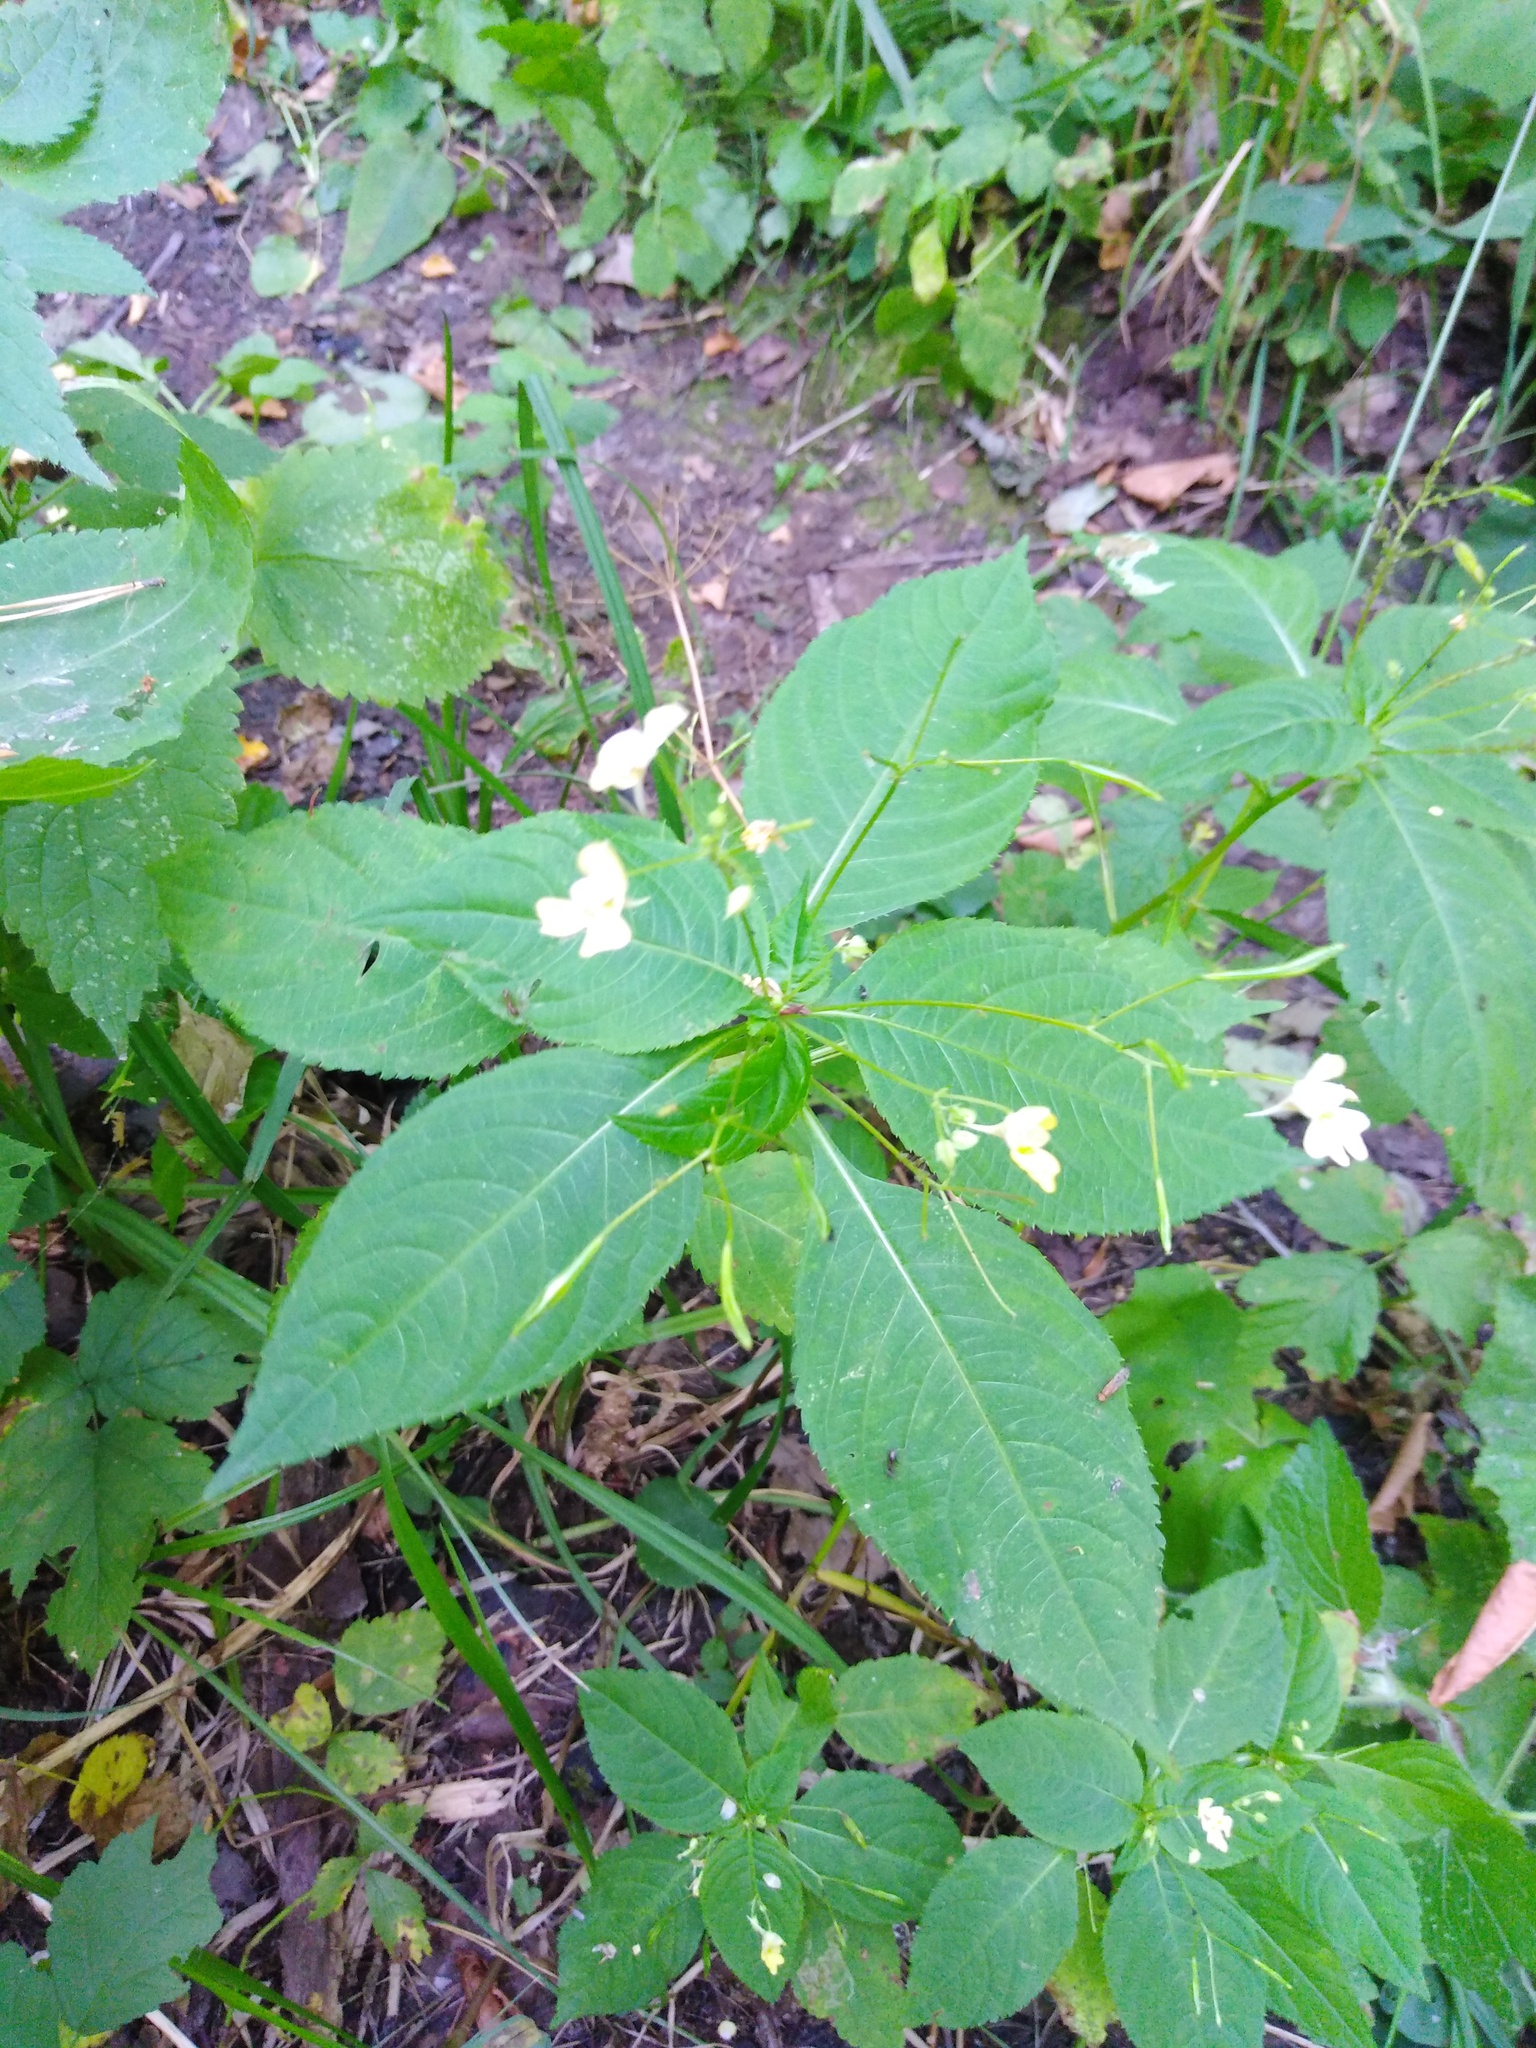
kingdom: Plantae
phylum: Tracheophyta
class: Magnoliopsida
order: Ericales
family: Balsaminaceae
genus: Impatiens
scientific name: Impatiens parviflora
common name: Small balsam
